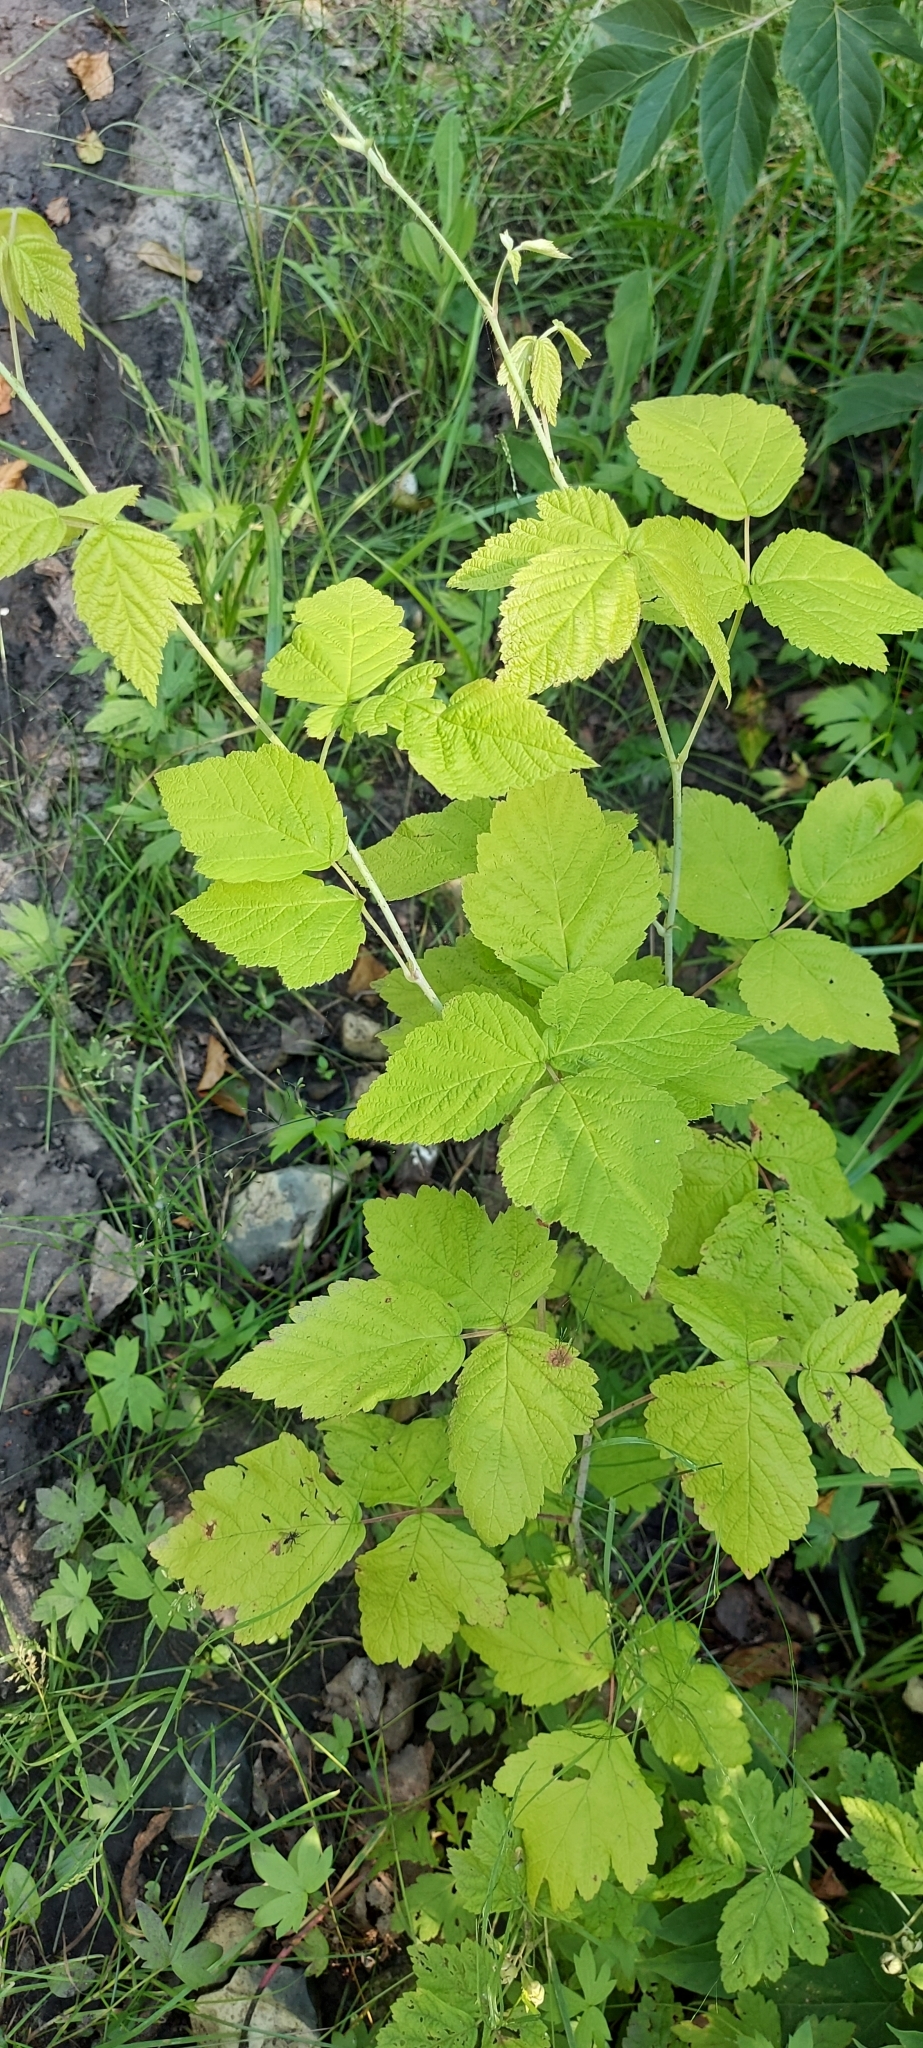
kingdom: Plantae
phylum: Tracheophyta
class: Magnoliopsida
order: Rosales
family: Rosaceae
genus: Rubus
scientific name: Rubus caesius
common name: Dewberry
